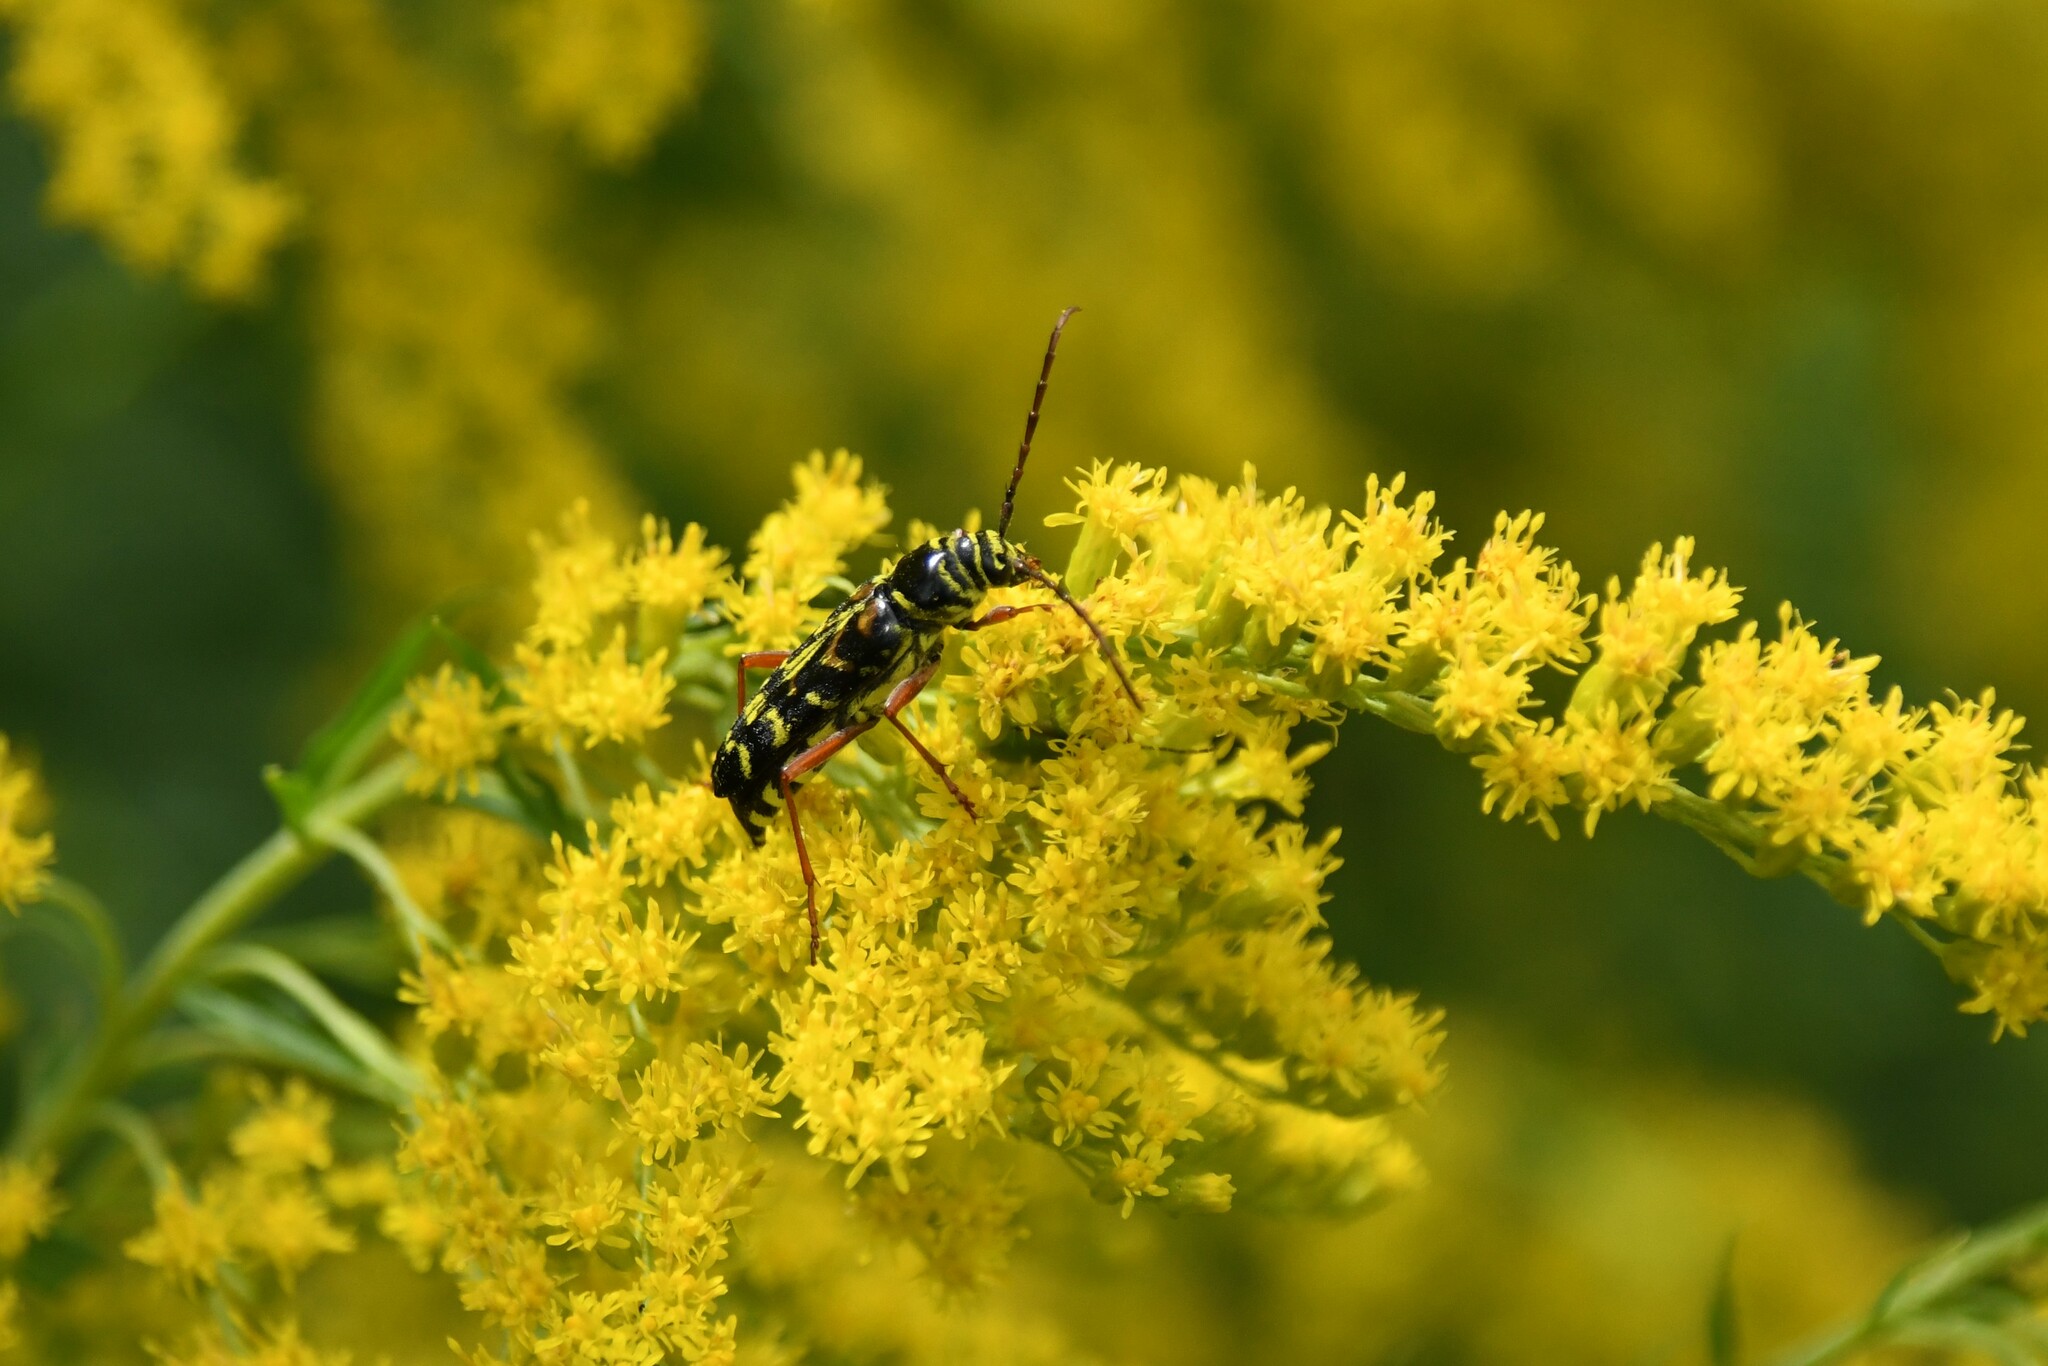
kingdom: Animalia
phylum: Arthropoda
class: Insecta
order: Coleoptera
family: Cerambycidae
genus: Megacyllene
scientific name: Megacyllene robiniae
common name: Locust borer
